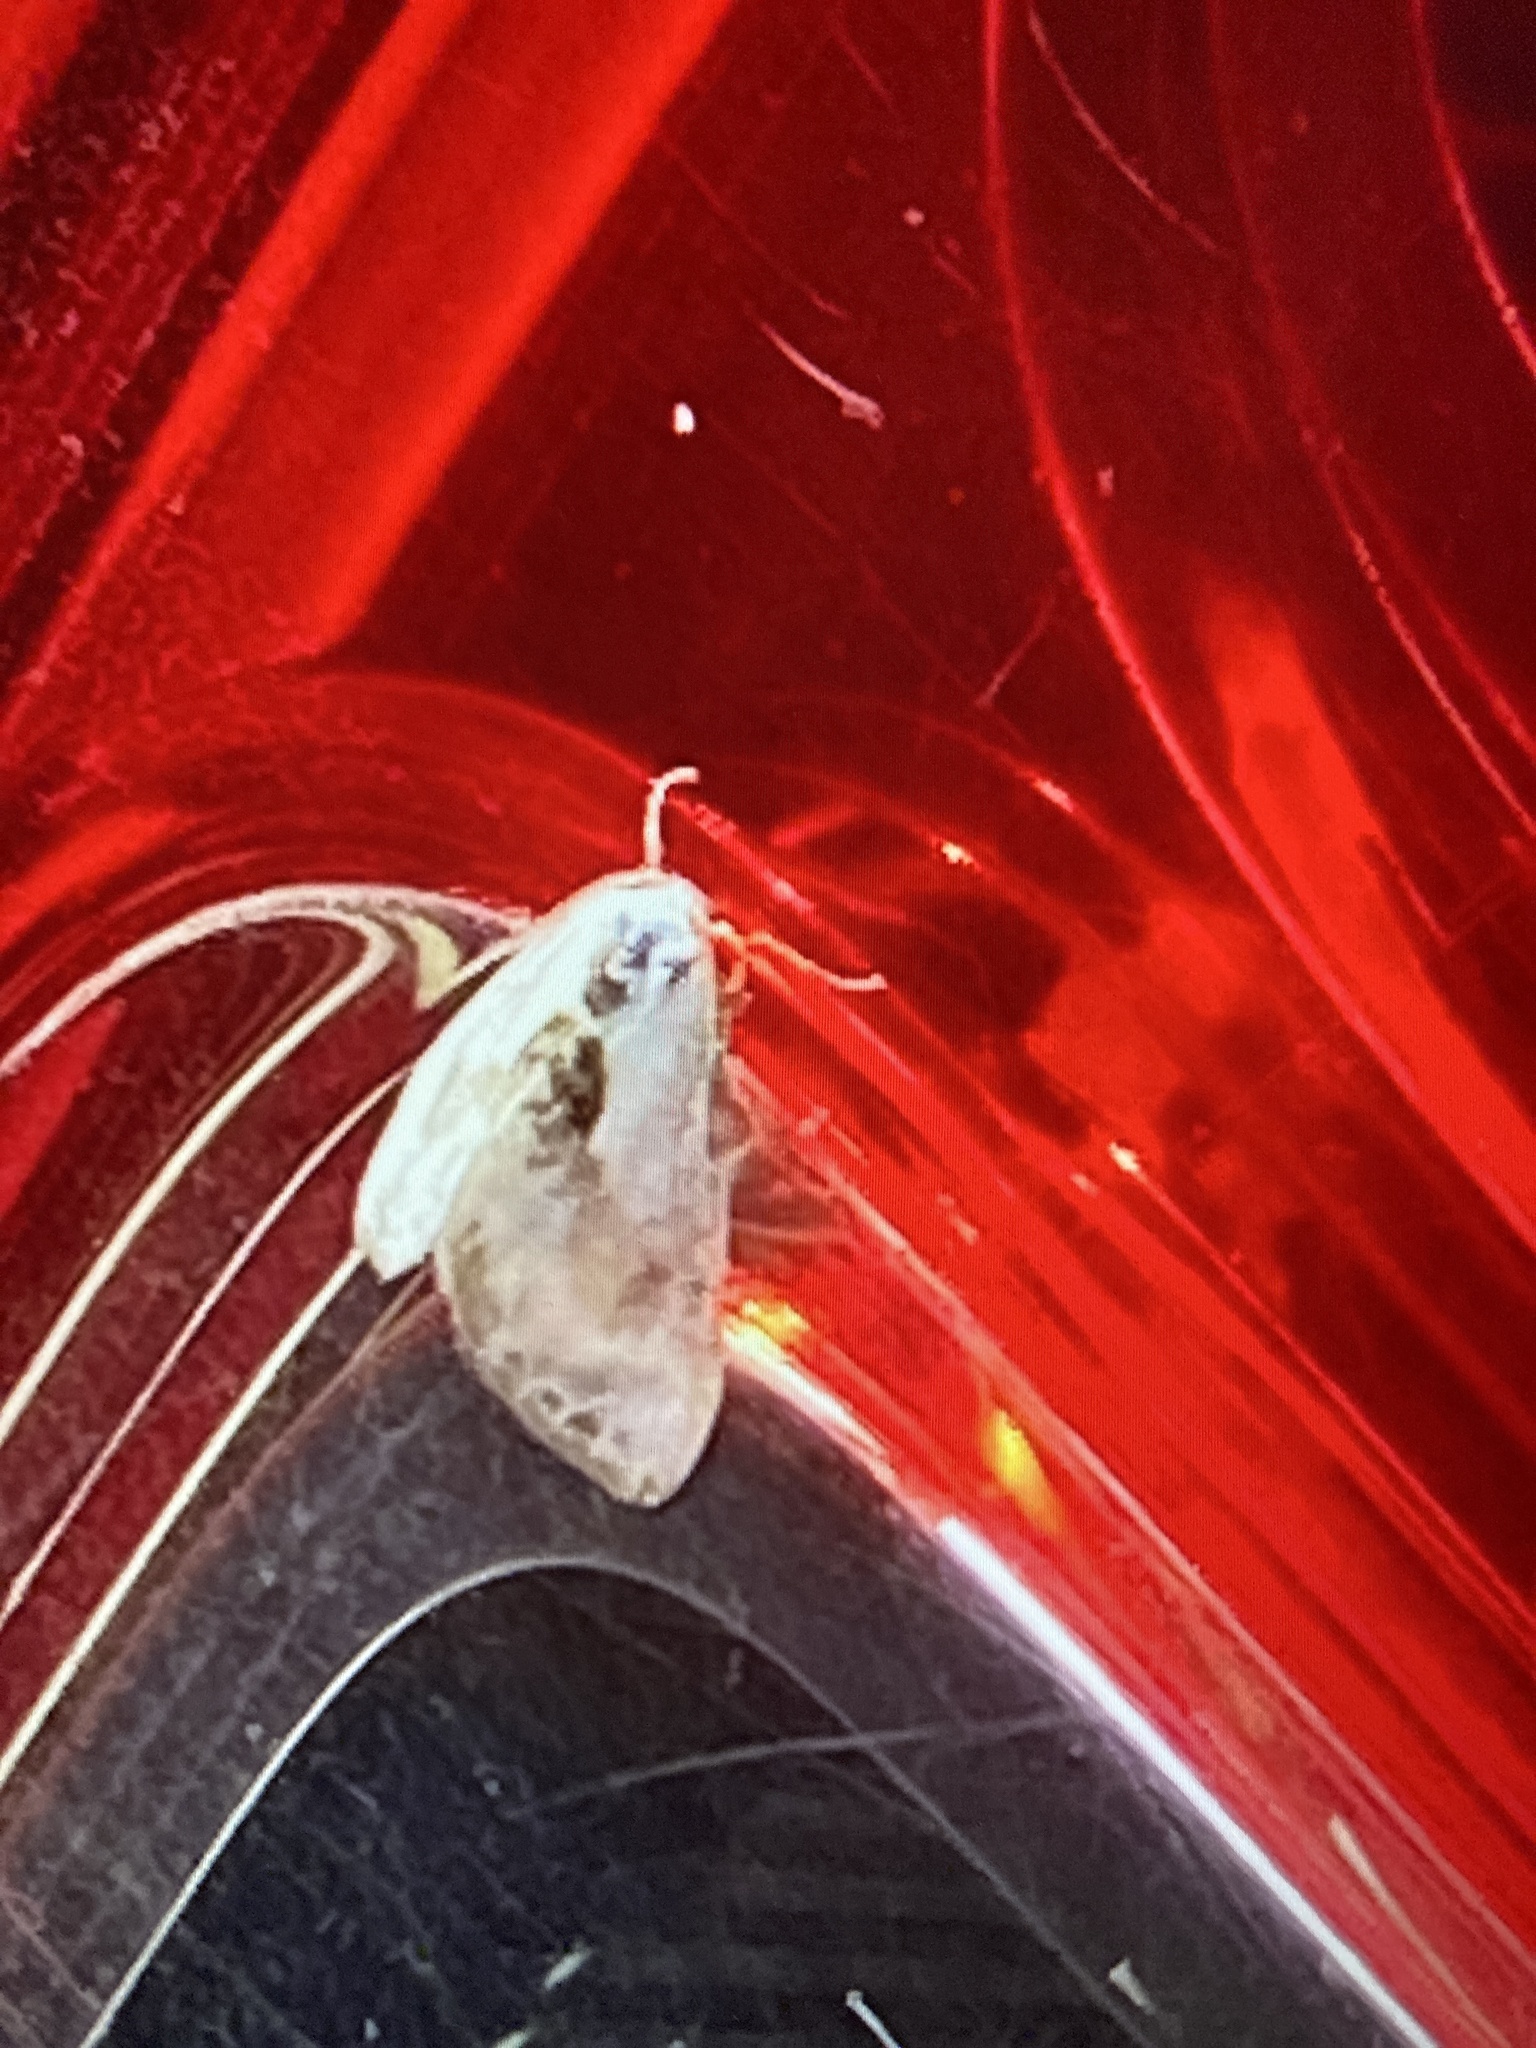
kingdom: Animalia
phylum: Arthropoda
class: Insecta
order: Lepidoptera
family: Drepanidae
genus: Cilix
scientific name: Cilix glaucata
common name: Chinese character
